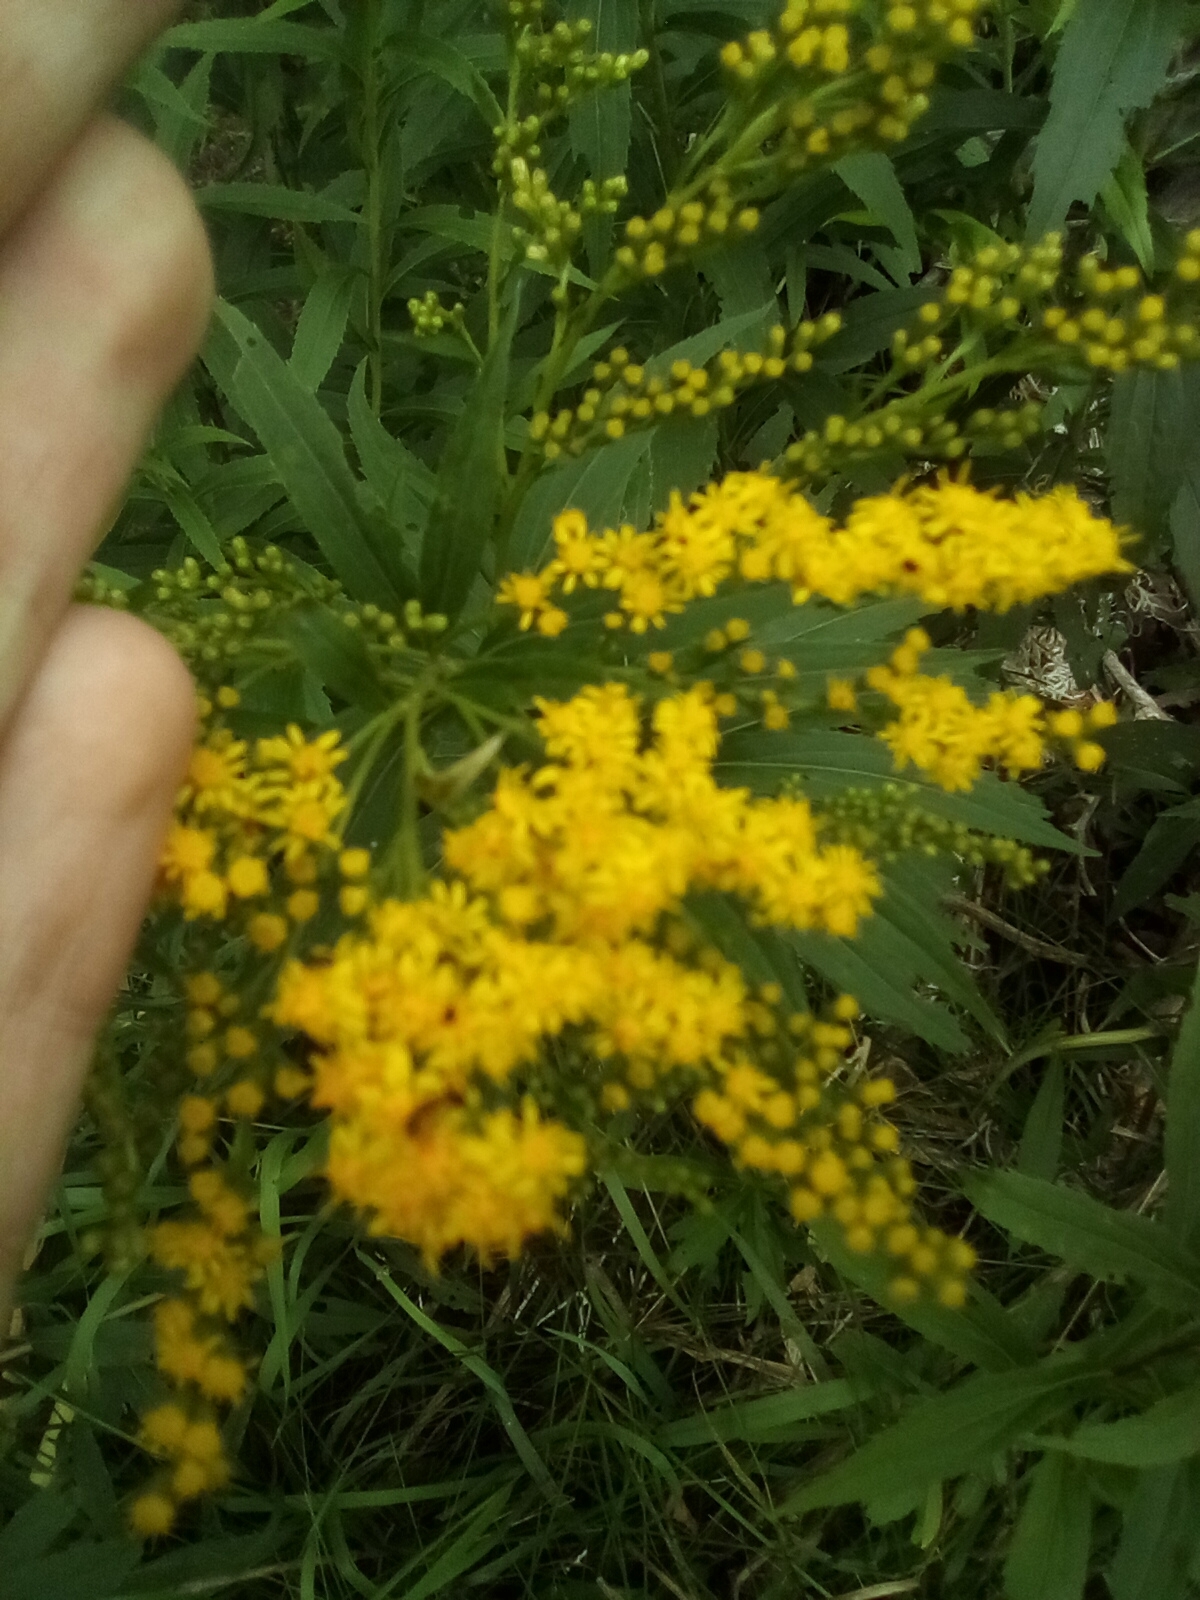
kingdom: Plantae
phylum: Tracheophyta
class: Magnoliopsida
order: Asterales
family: Asteraceae
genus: Solidago
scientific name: Solidago gigantea
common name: Giant goldenrod
